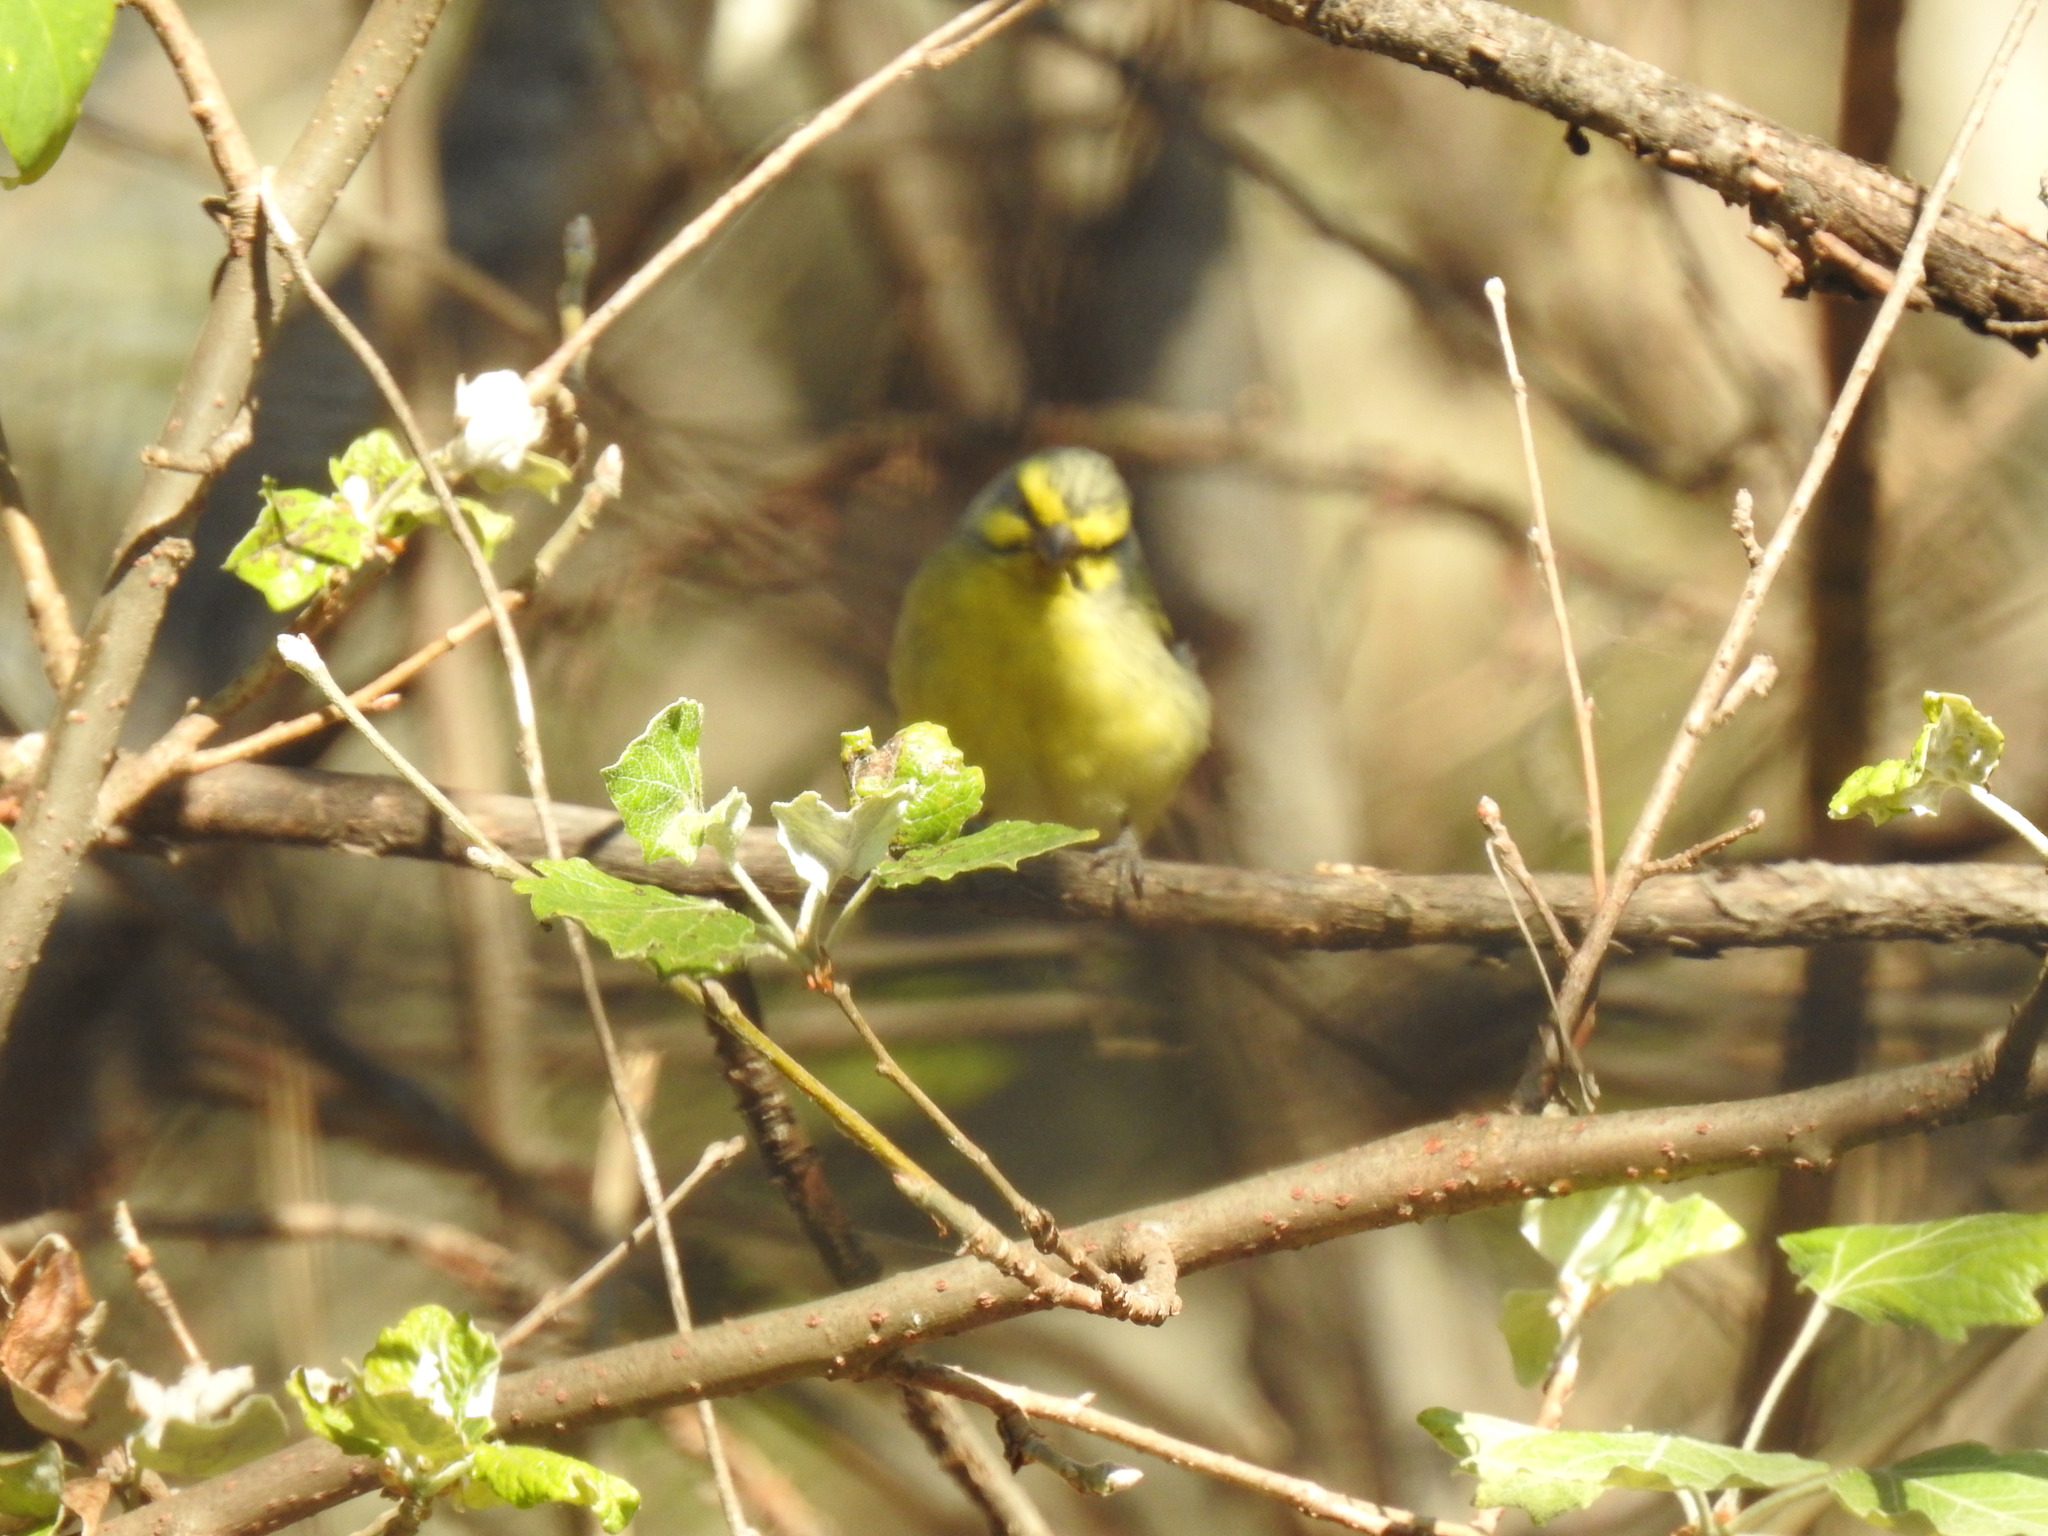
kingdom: Animalia
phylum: Chordata
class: Aves
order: Passeriformes
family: Fringillidae
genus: Crithagra
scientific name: Crithagra mozambica
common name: Yellow-fronted canary
